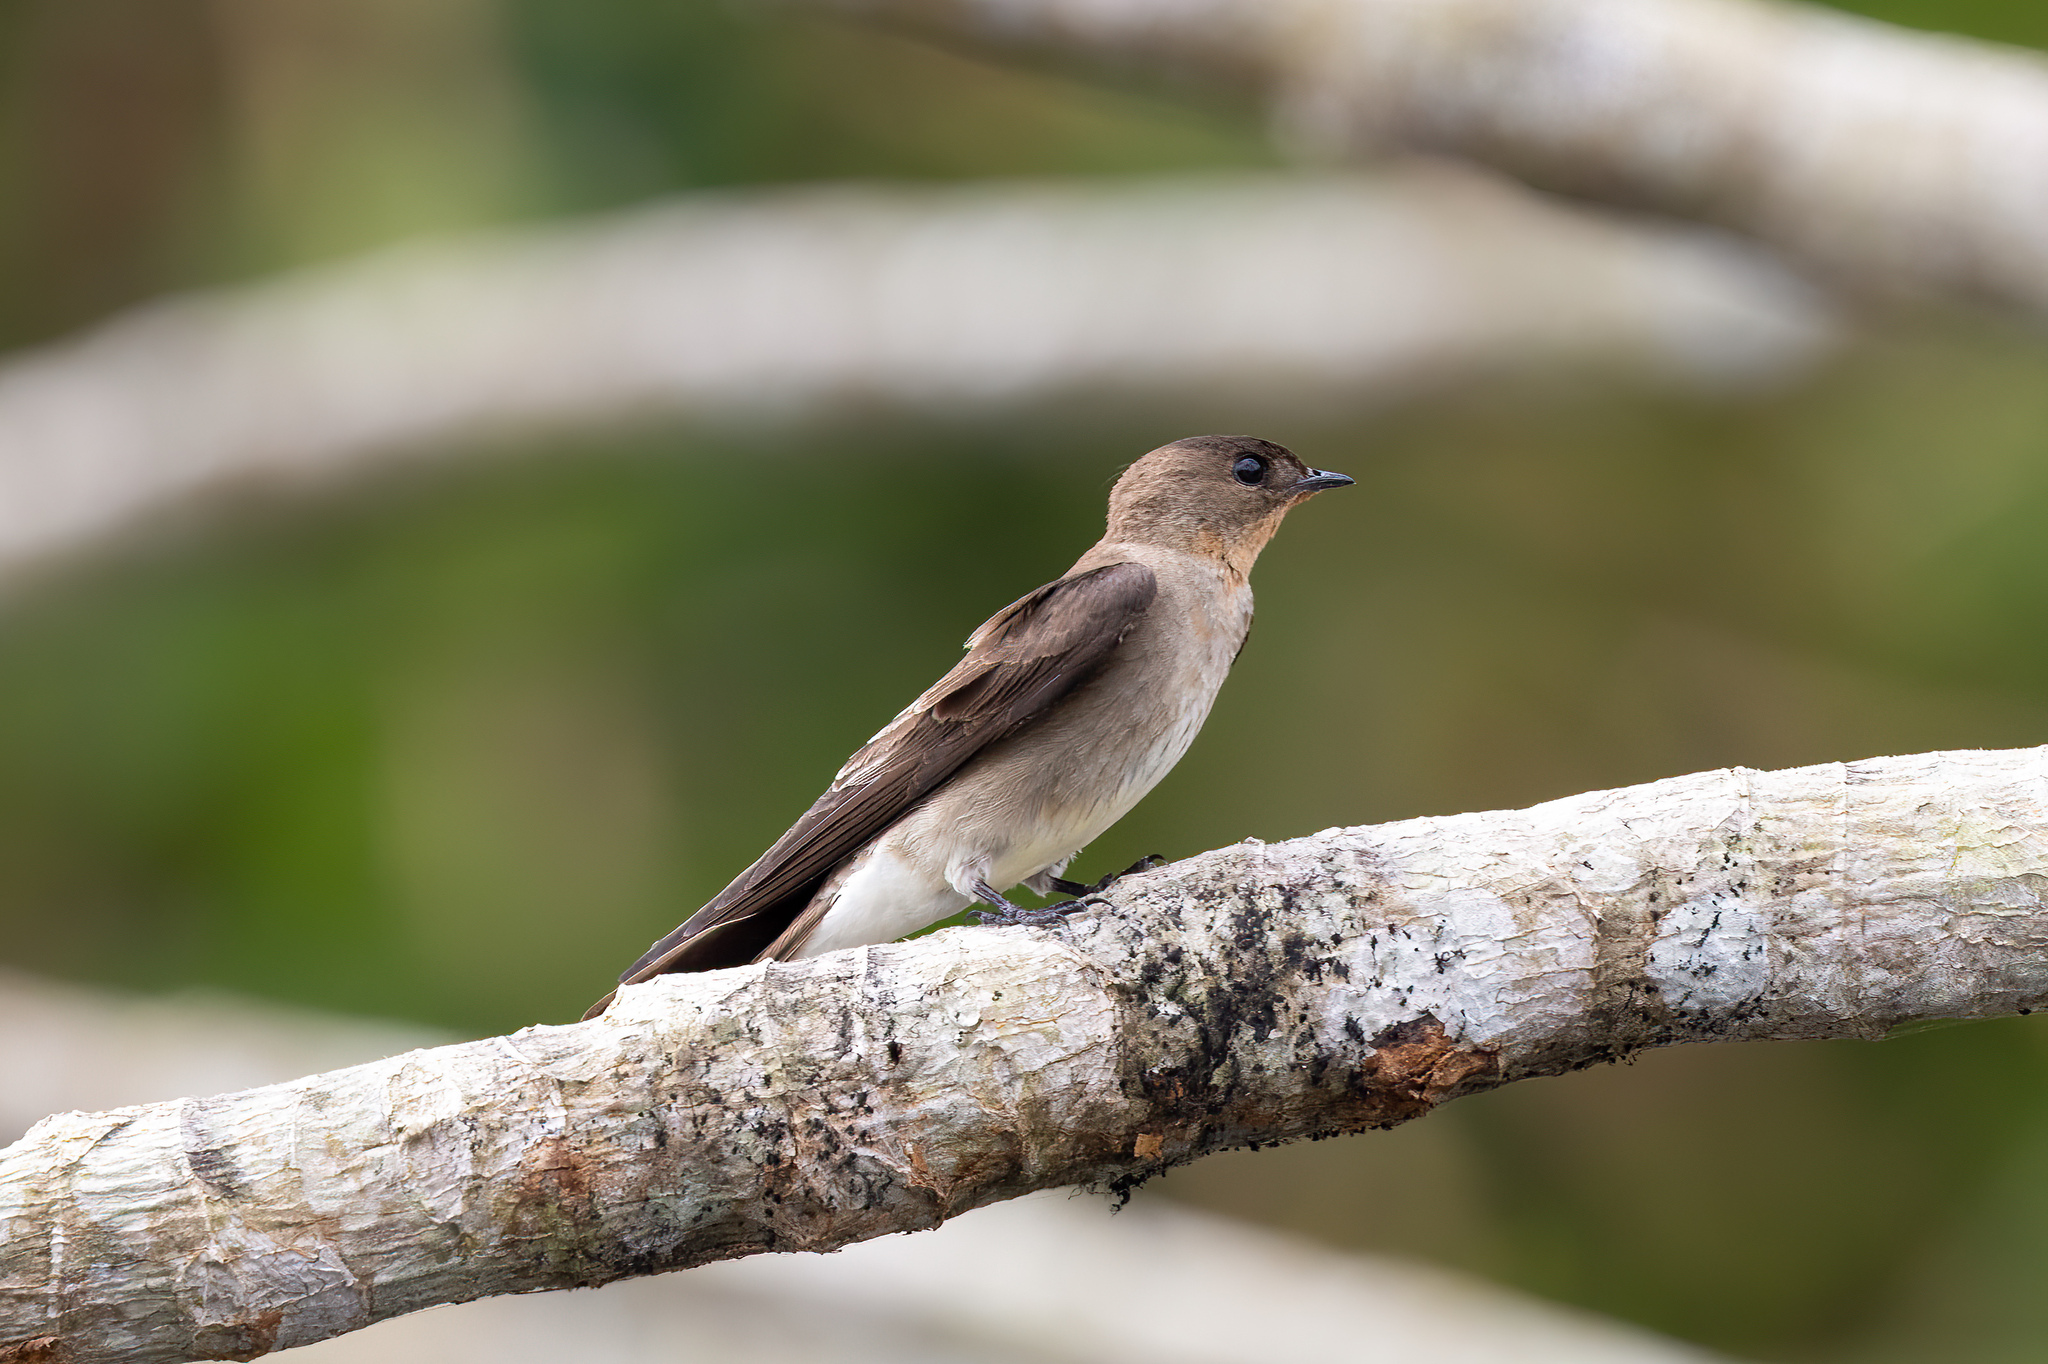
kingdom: Animalia
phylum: Chordata
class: Aves
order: Passeriformes
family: Hirundinidae
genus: Stelgidopteryx
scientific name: Stelgidopteryx ruficollis
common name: Southern rough-winged swallow
